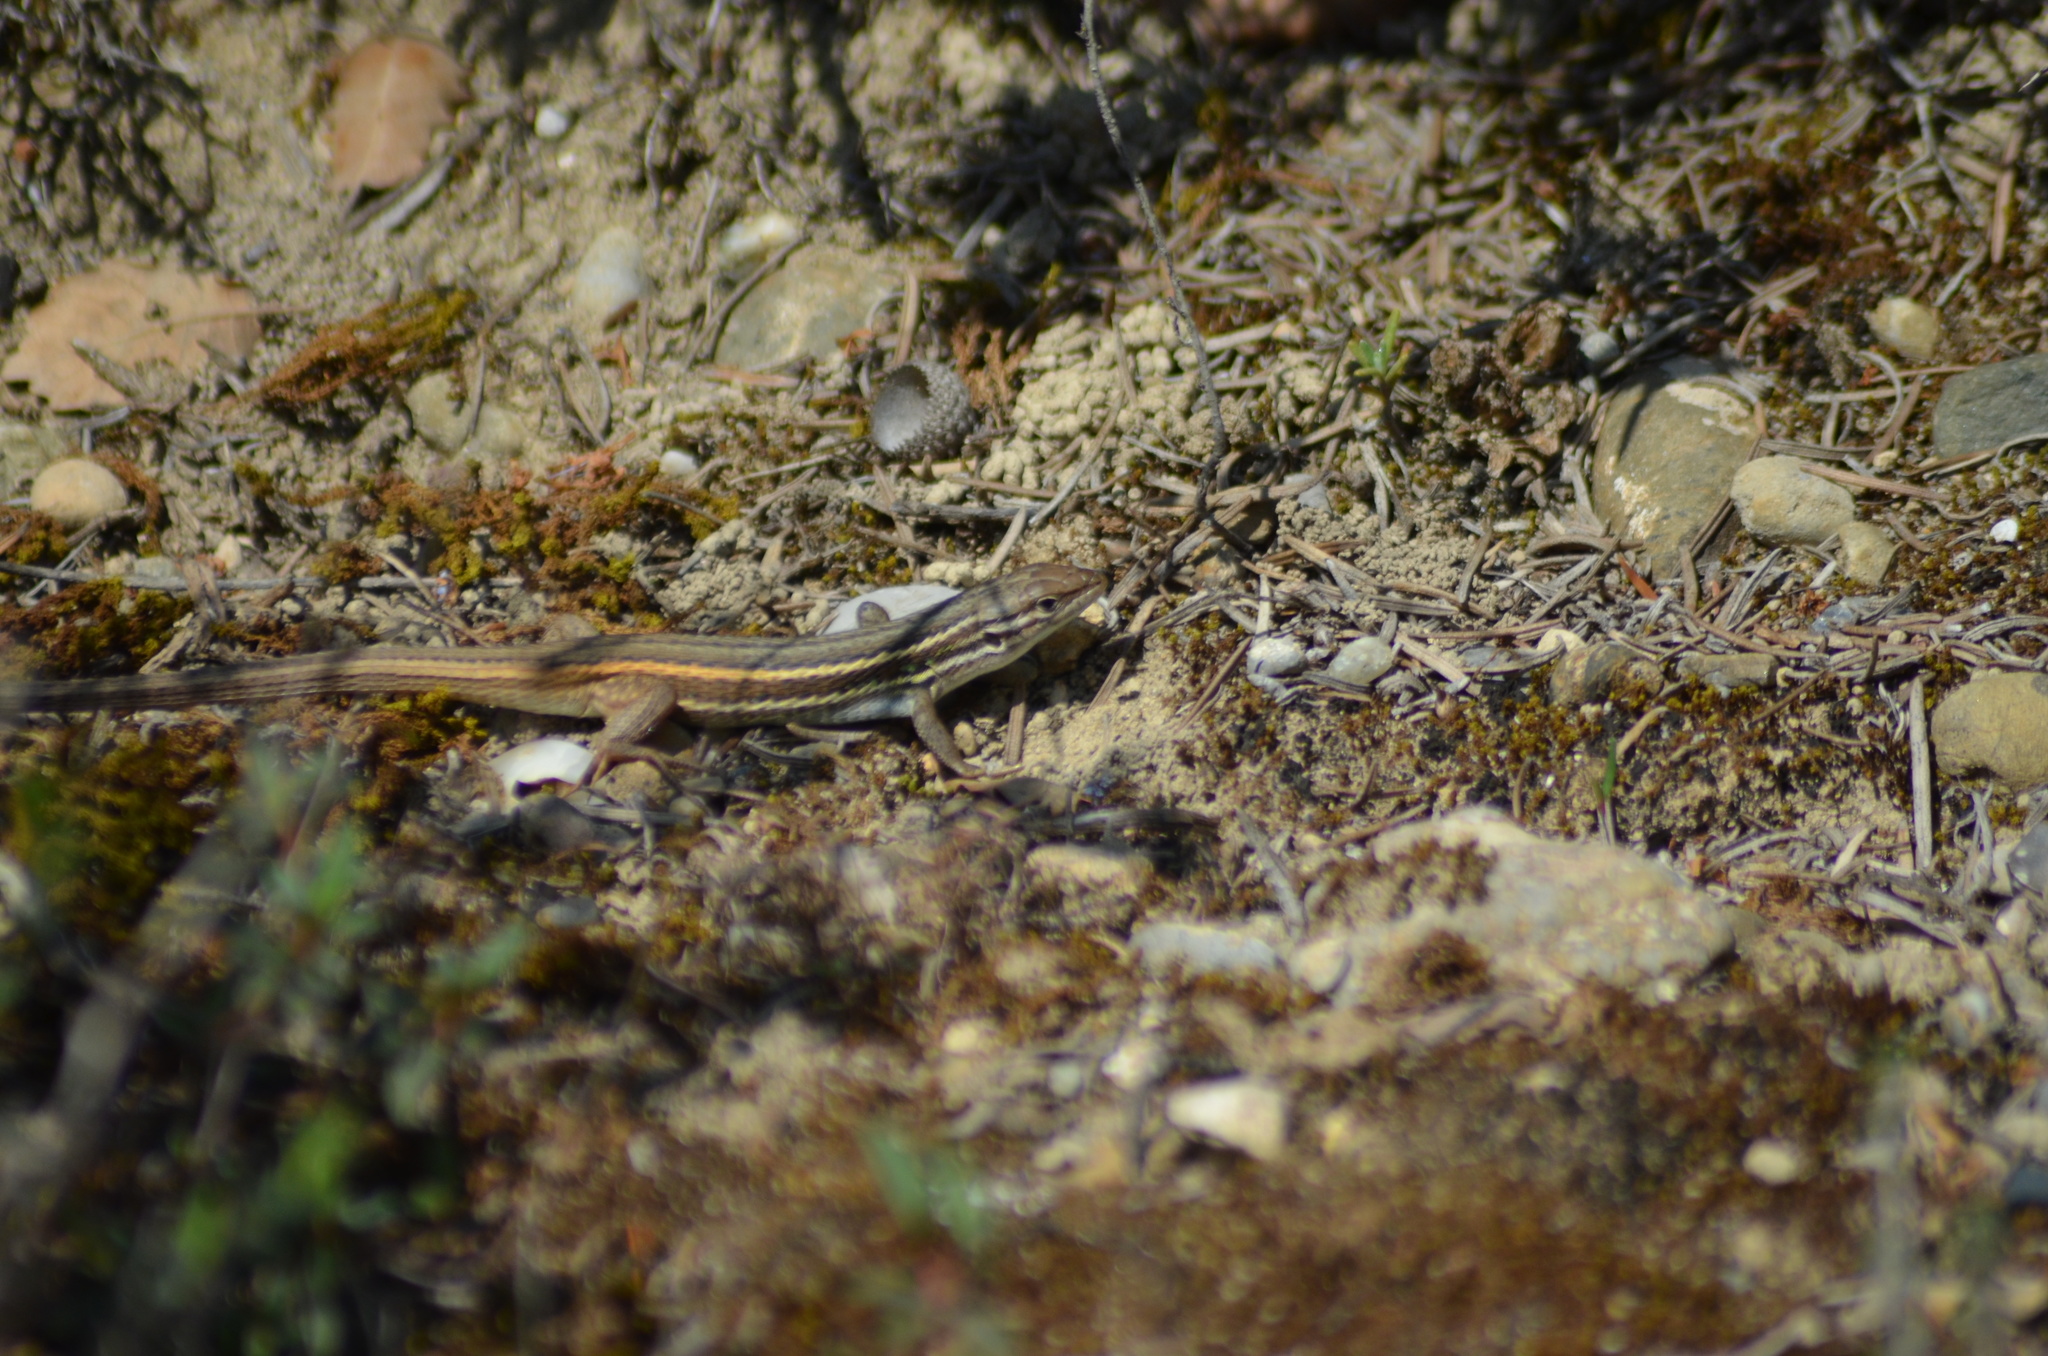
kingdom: Animalia
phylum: Chordata
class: Squamata
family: Lacertidae
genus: Psammodromus
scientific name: Psammodromus algirus
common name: Algerian psammodromus
